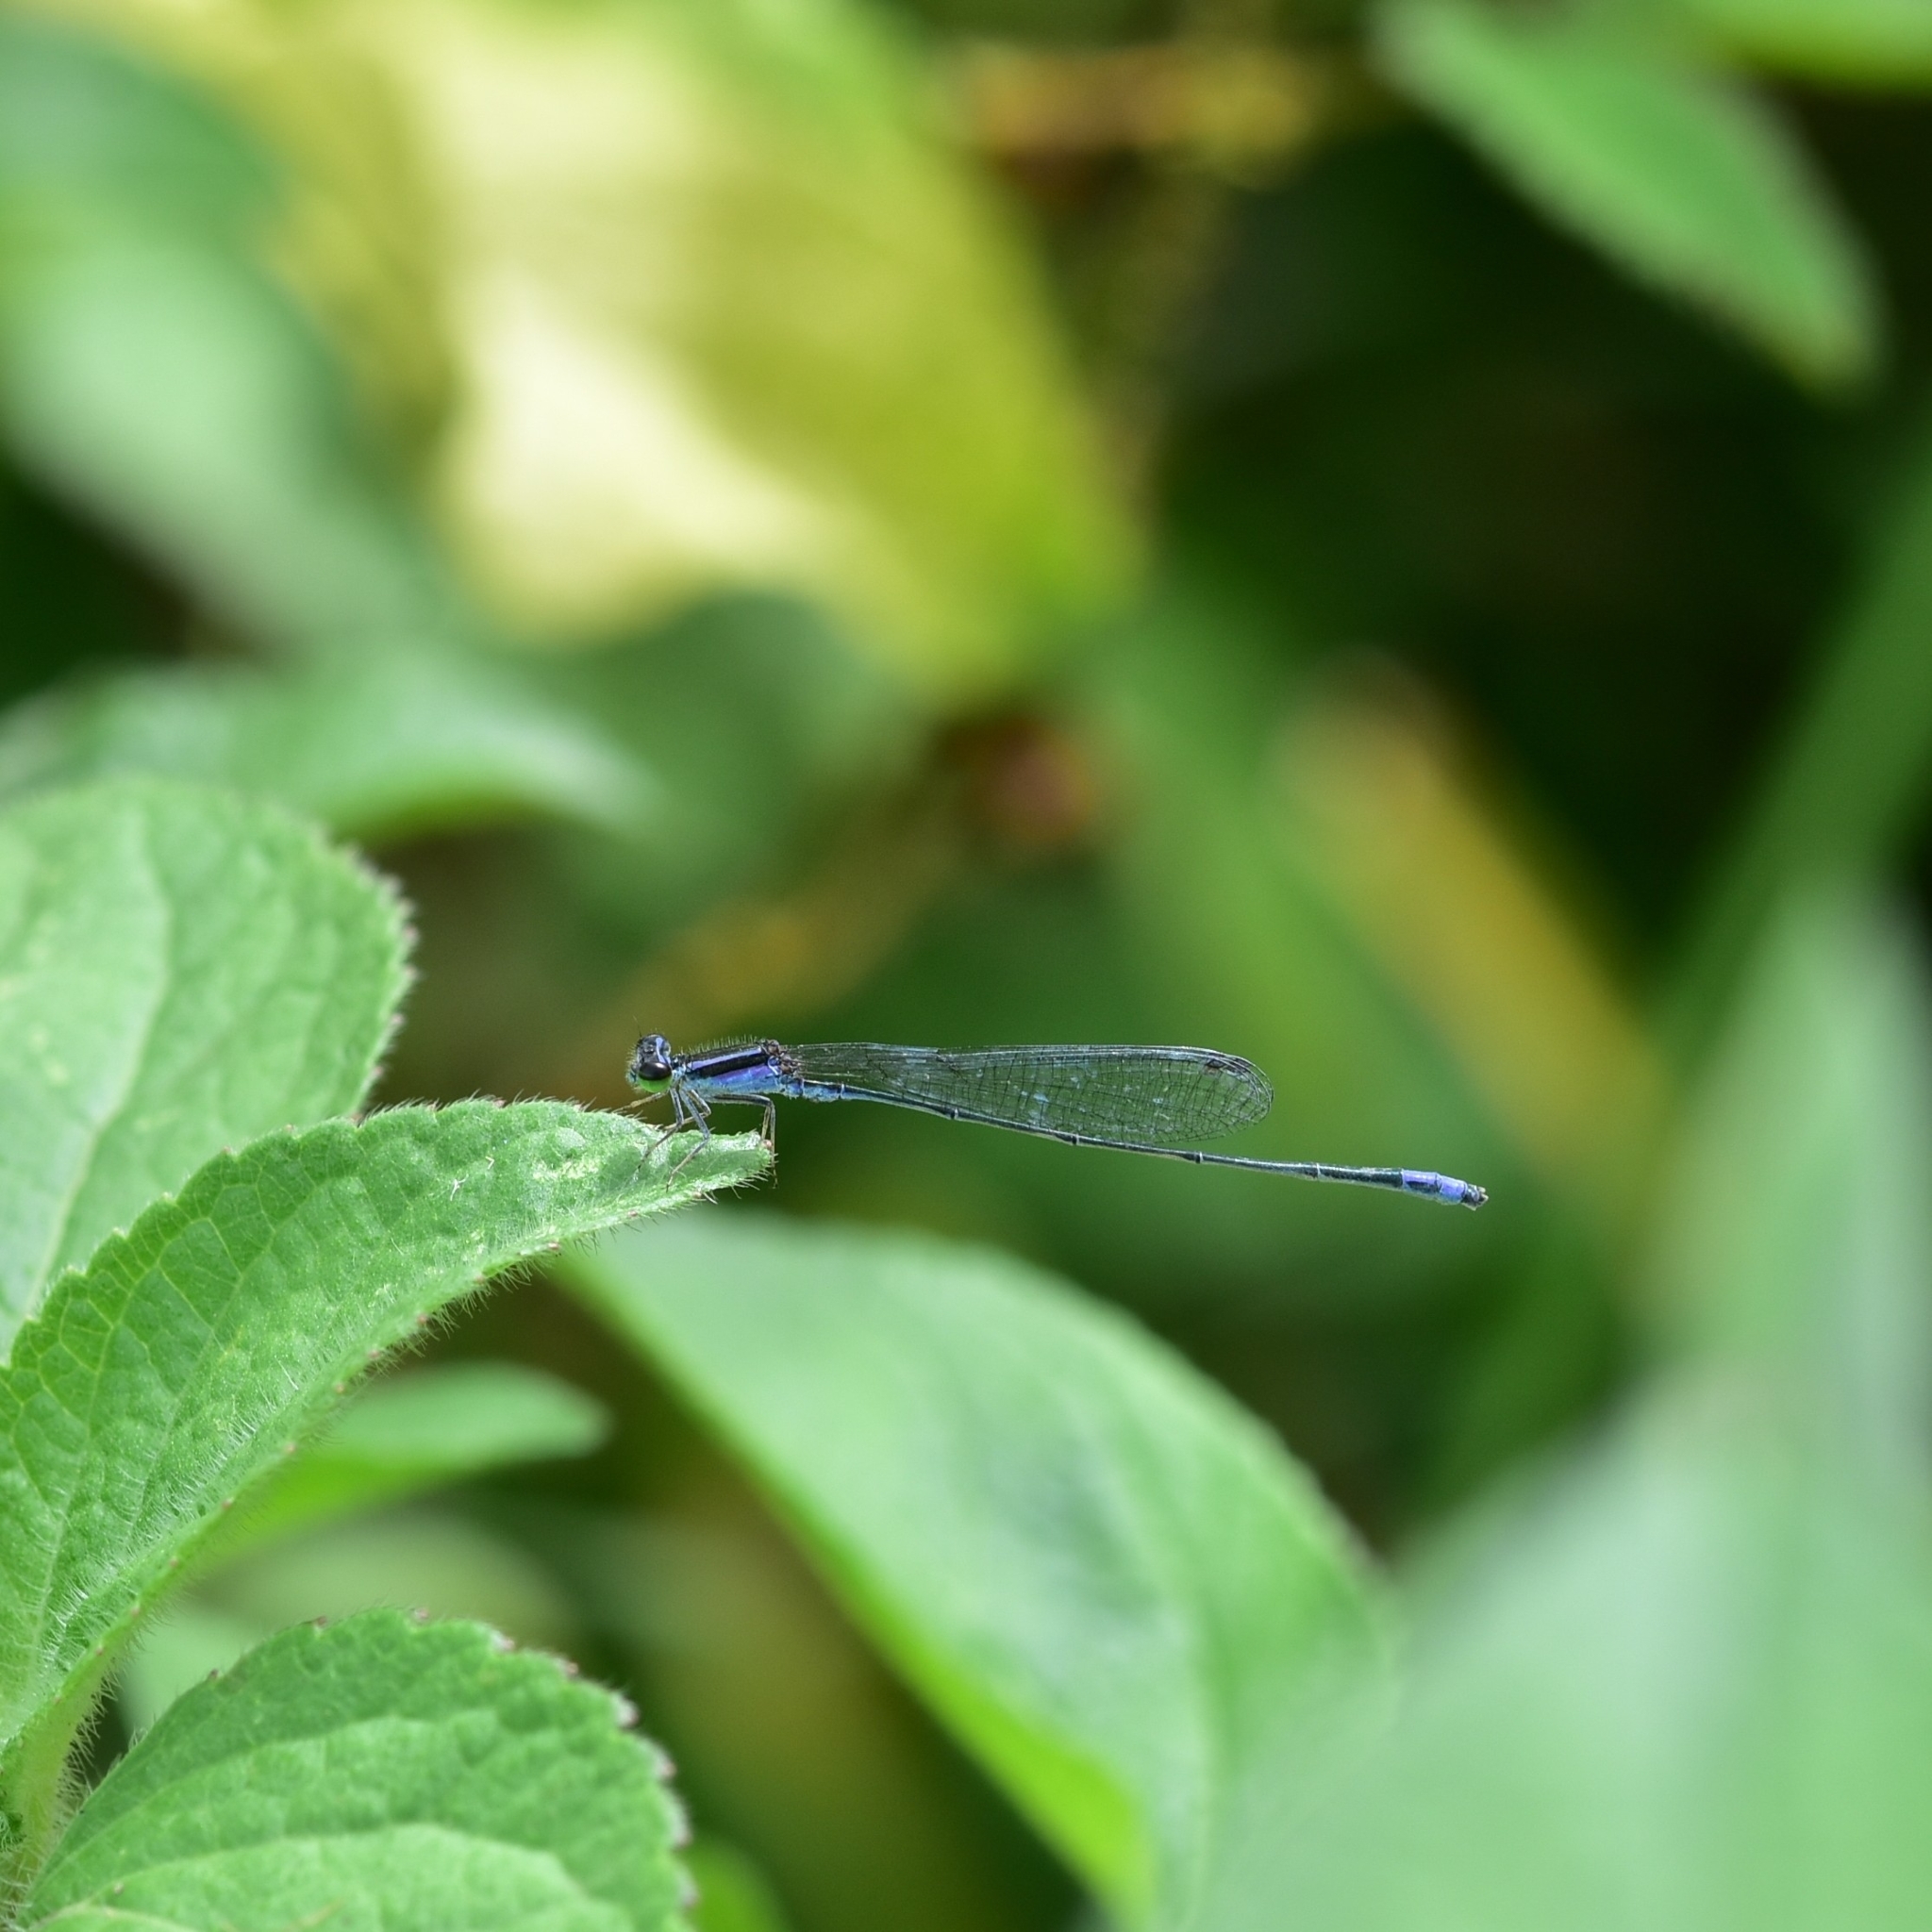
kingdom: Animalia
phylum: Arthropoda
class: Insecta
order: Odonata
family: Coenagrionidae
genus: Aciagrion
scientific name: Aciagrion approximans
